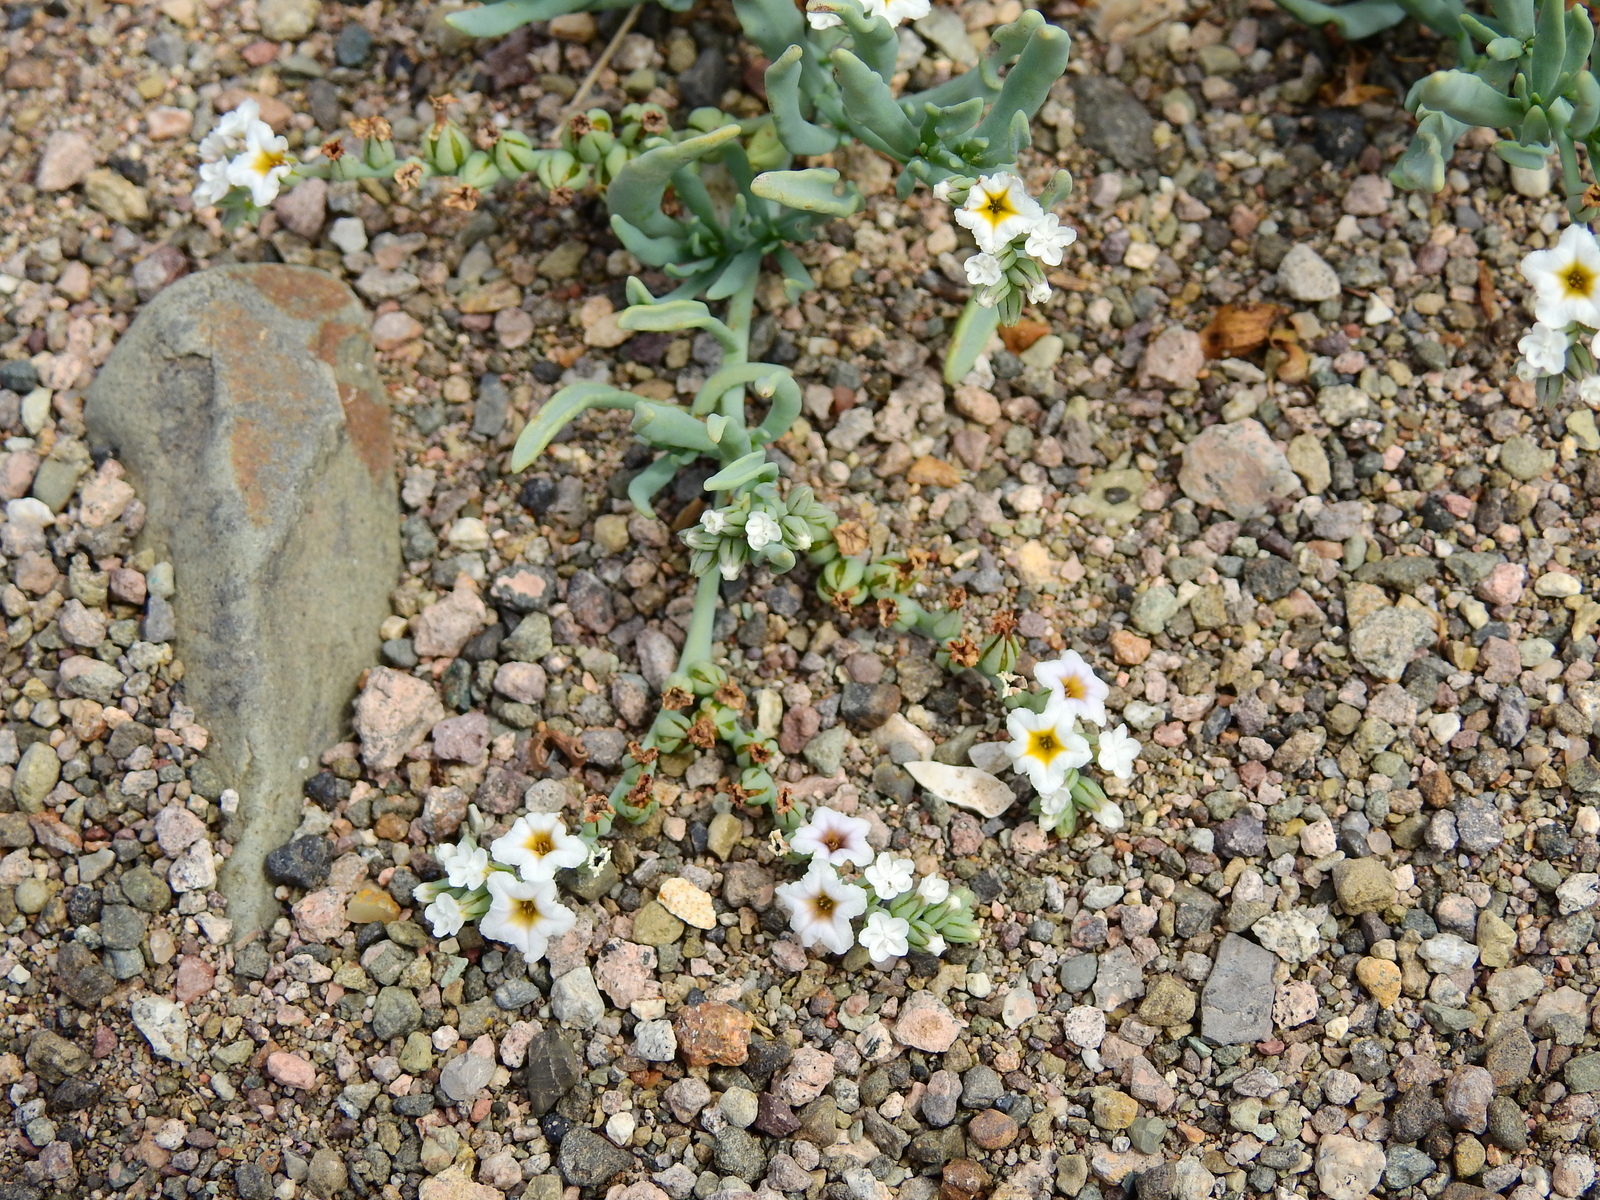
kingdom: Plantae
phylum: Tracheophyta
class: Magnoliopsida
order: Boraginales
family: Heliotropiaceae
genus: Heliotropium
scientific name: Heliotropium curassavicum
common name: Seaside heliotrope
